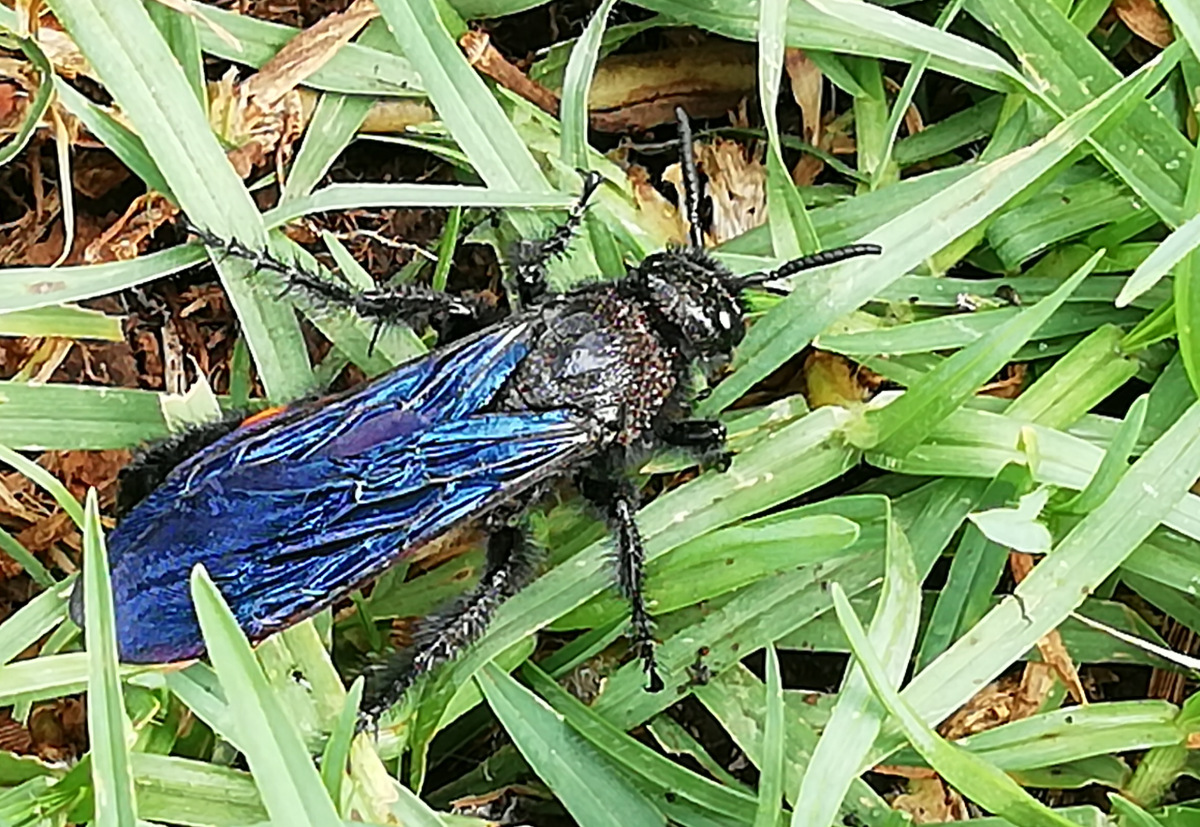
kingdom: Animalia
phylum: Arthropoda
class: Insecta
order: Hymenoptera
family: Scoliidae
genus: Pygodasis
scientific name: Pygodasis ephippium
